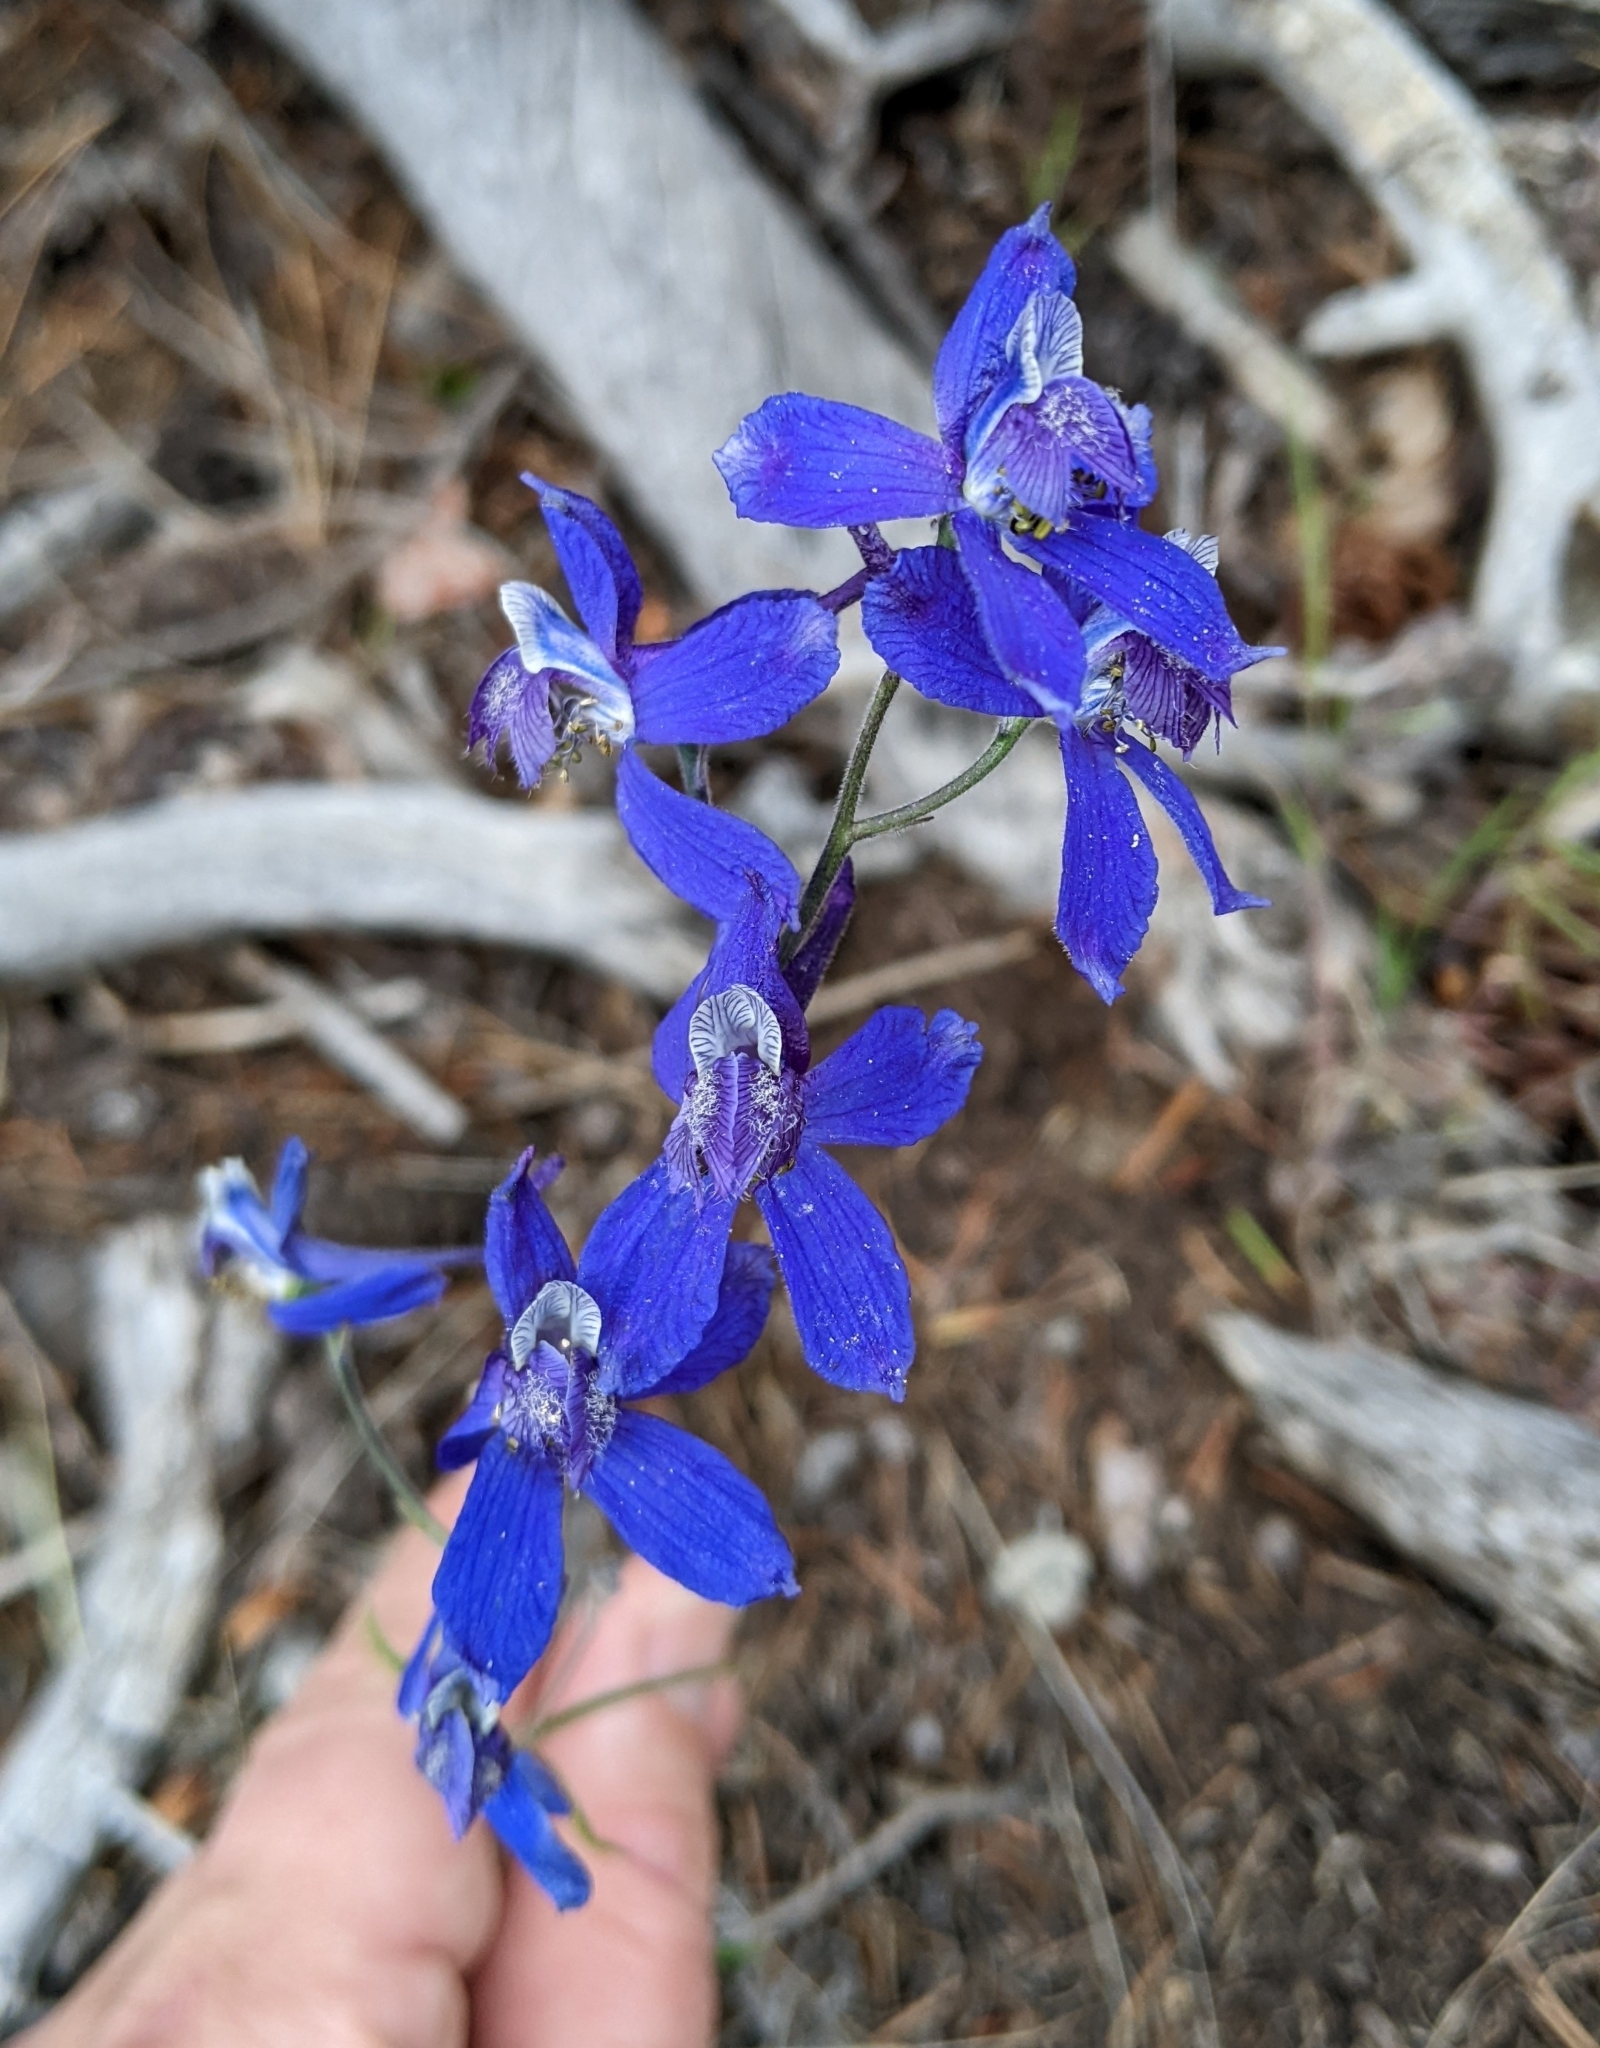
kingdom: Plantae
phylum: Tracheophyta
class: Magnoliopsida
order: Ranunculales
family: Ranunculaceae
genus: Delphinium
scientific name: Delphinium nuttallianum
